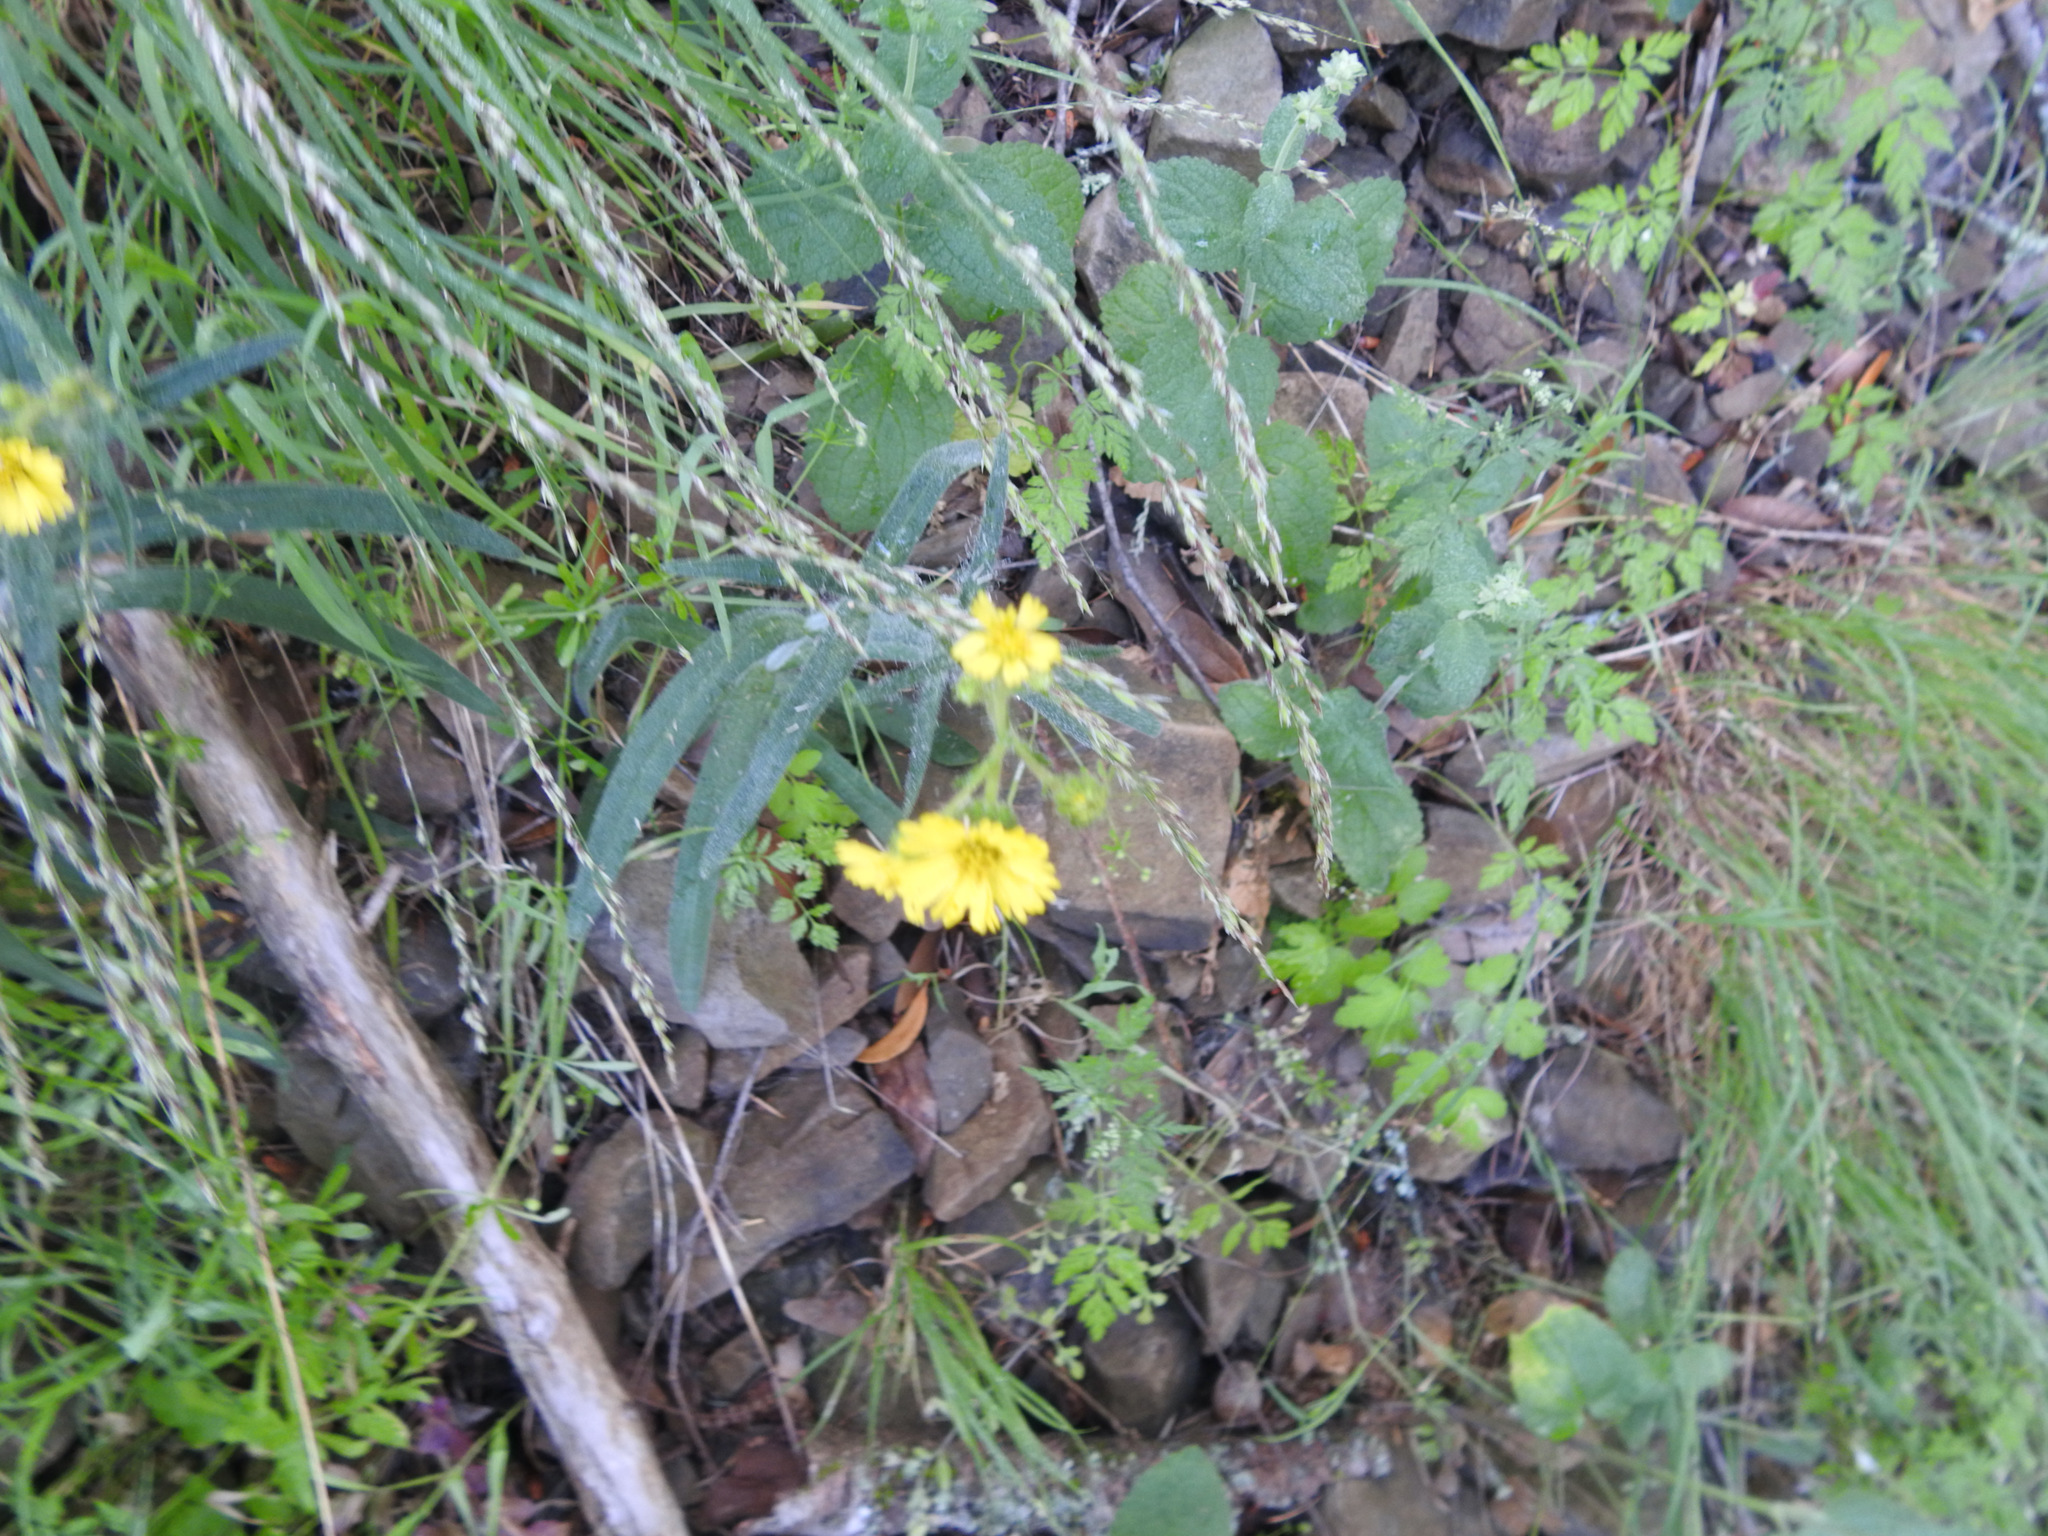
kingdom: Plantae
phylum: Tracheophyta
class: Magnoliopsida
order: Asterales
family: Asteraceae
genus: Anisocarpus
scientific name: Anisocarpus madioides
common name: Woodland madia
